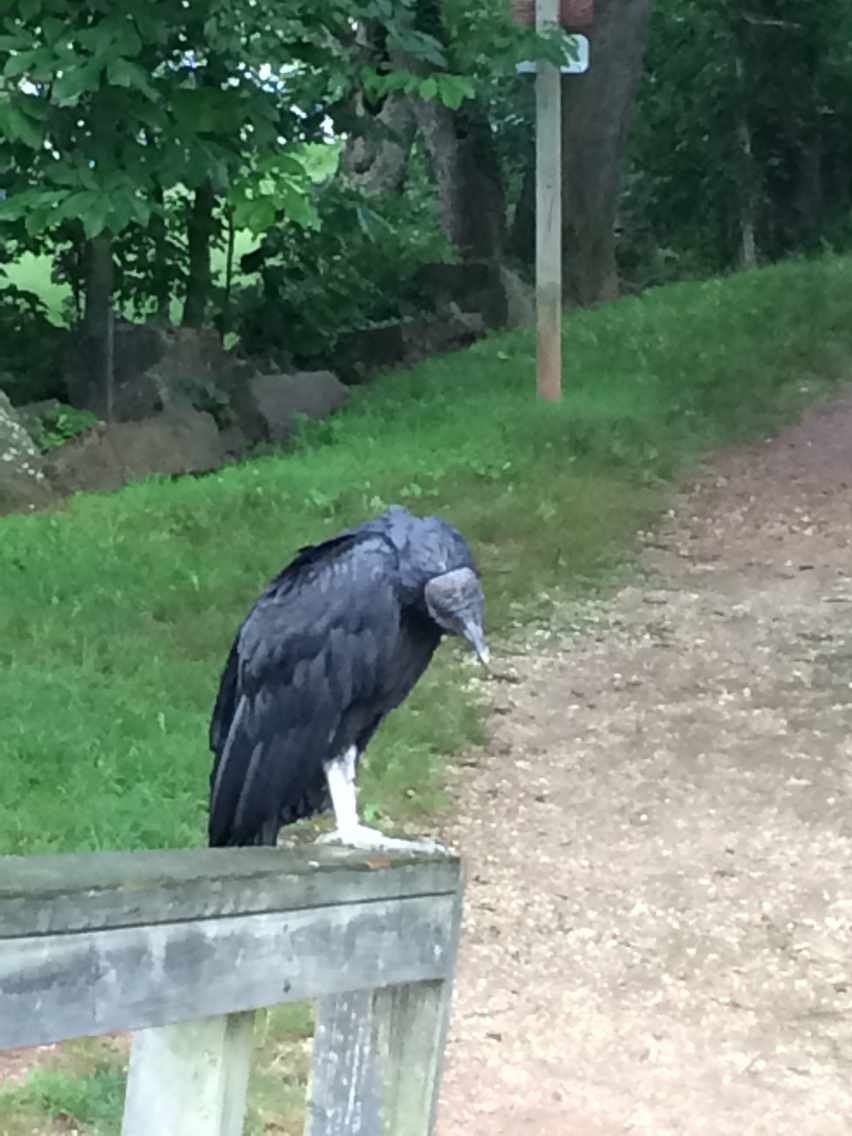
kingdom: Animalia
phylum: Chordata
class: Aves
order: Accipitriformes
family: Cathartidae
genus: Coragyps
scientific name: Coragyps atratus
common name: Black vulture
